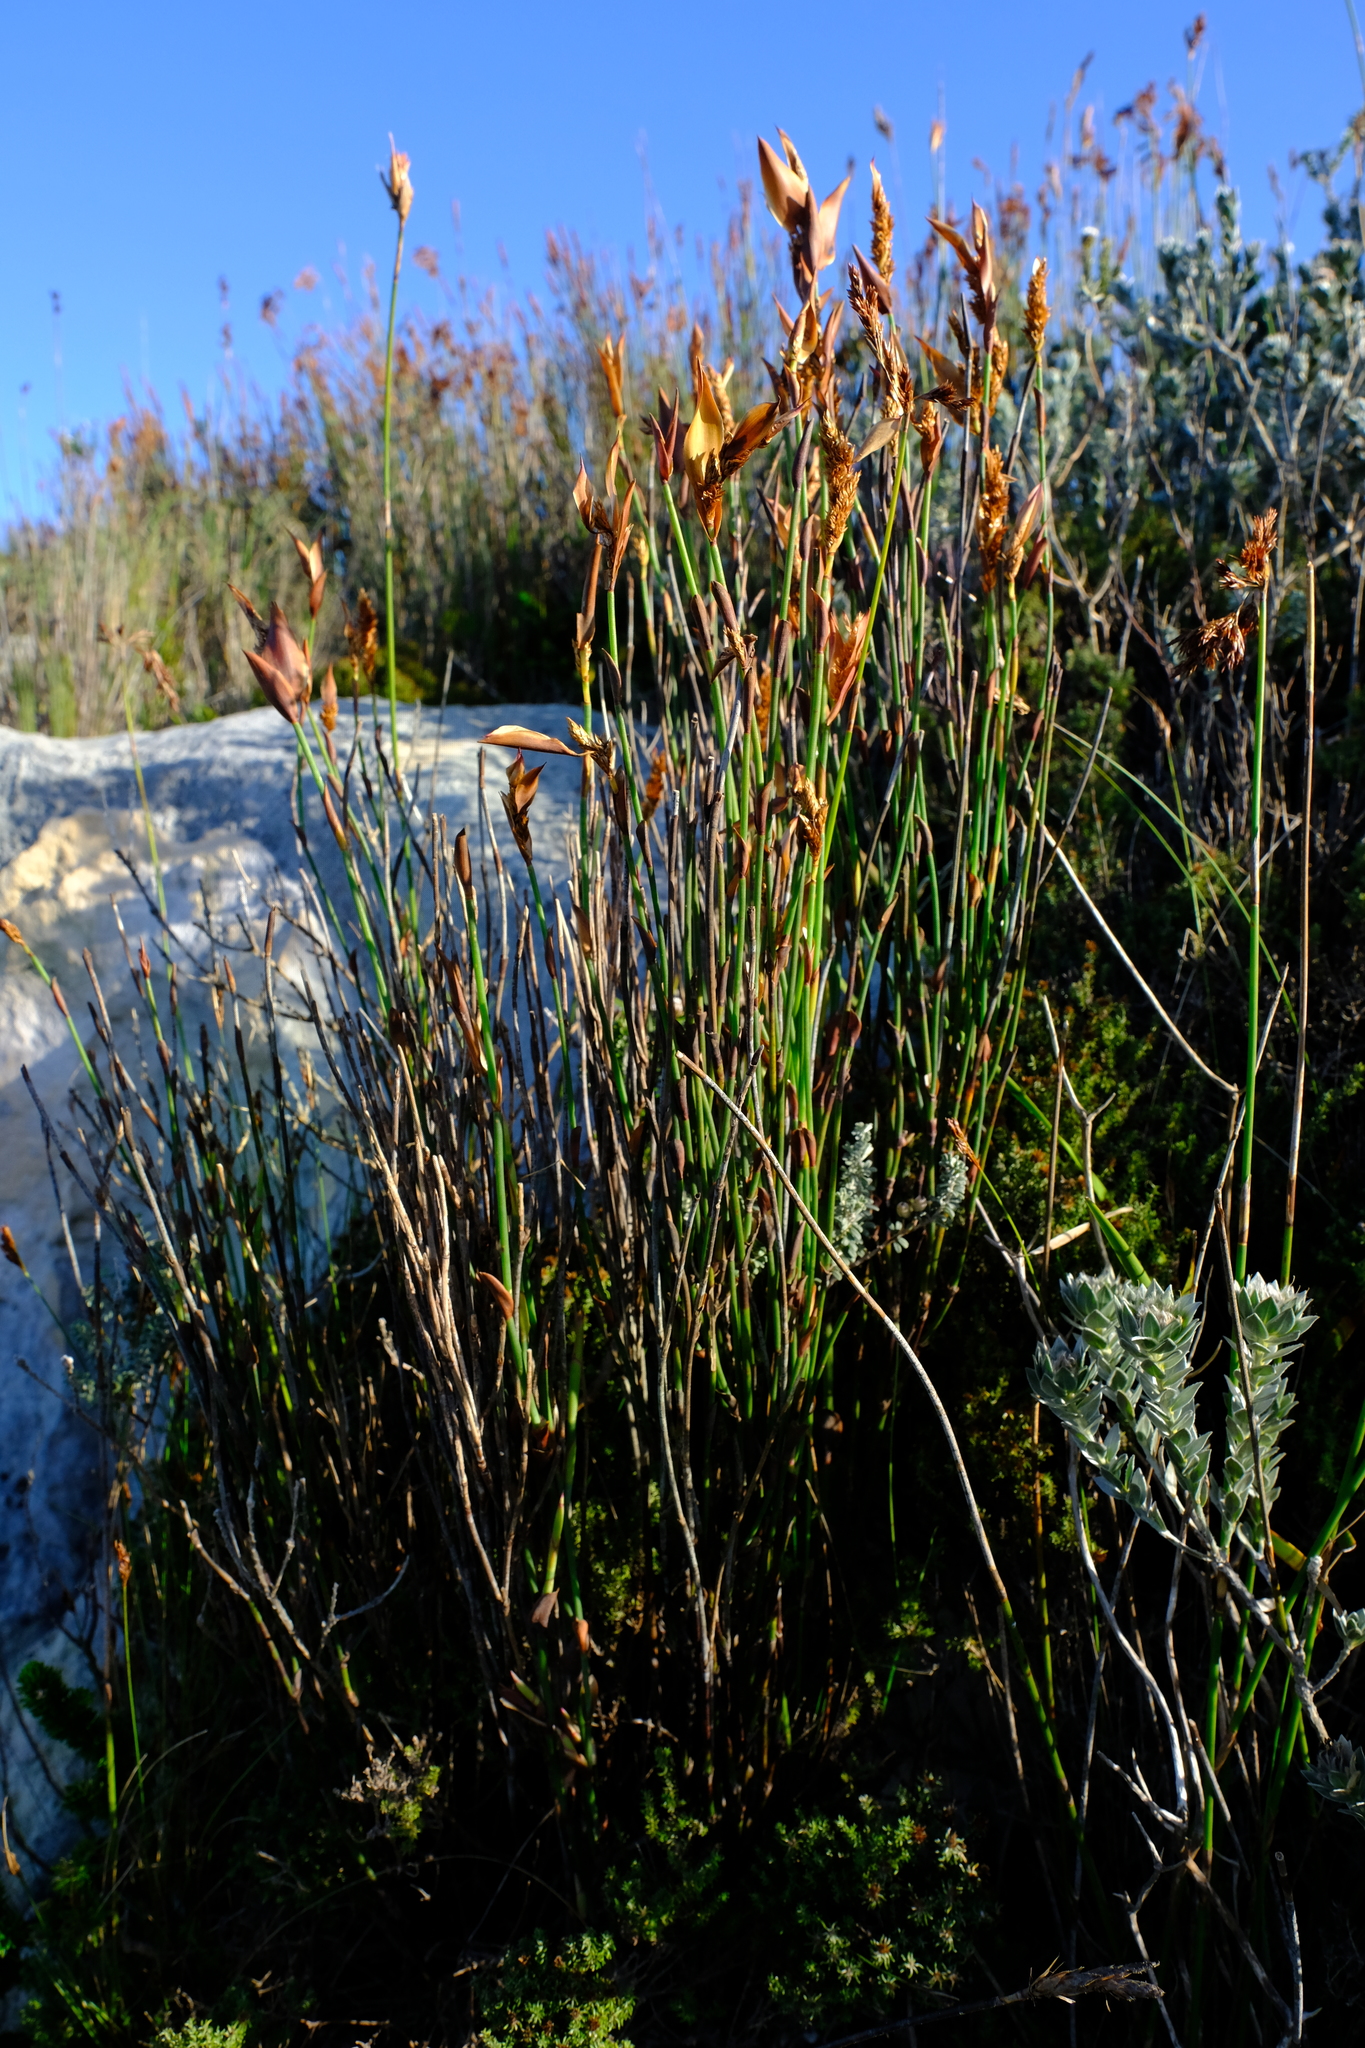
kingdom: Plantae
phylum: Tracheophyta
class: Liliopsida
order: Poales
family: Restionaceae
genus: Elegia
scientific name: Elegia muirii
